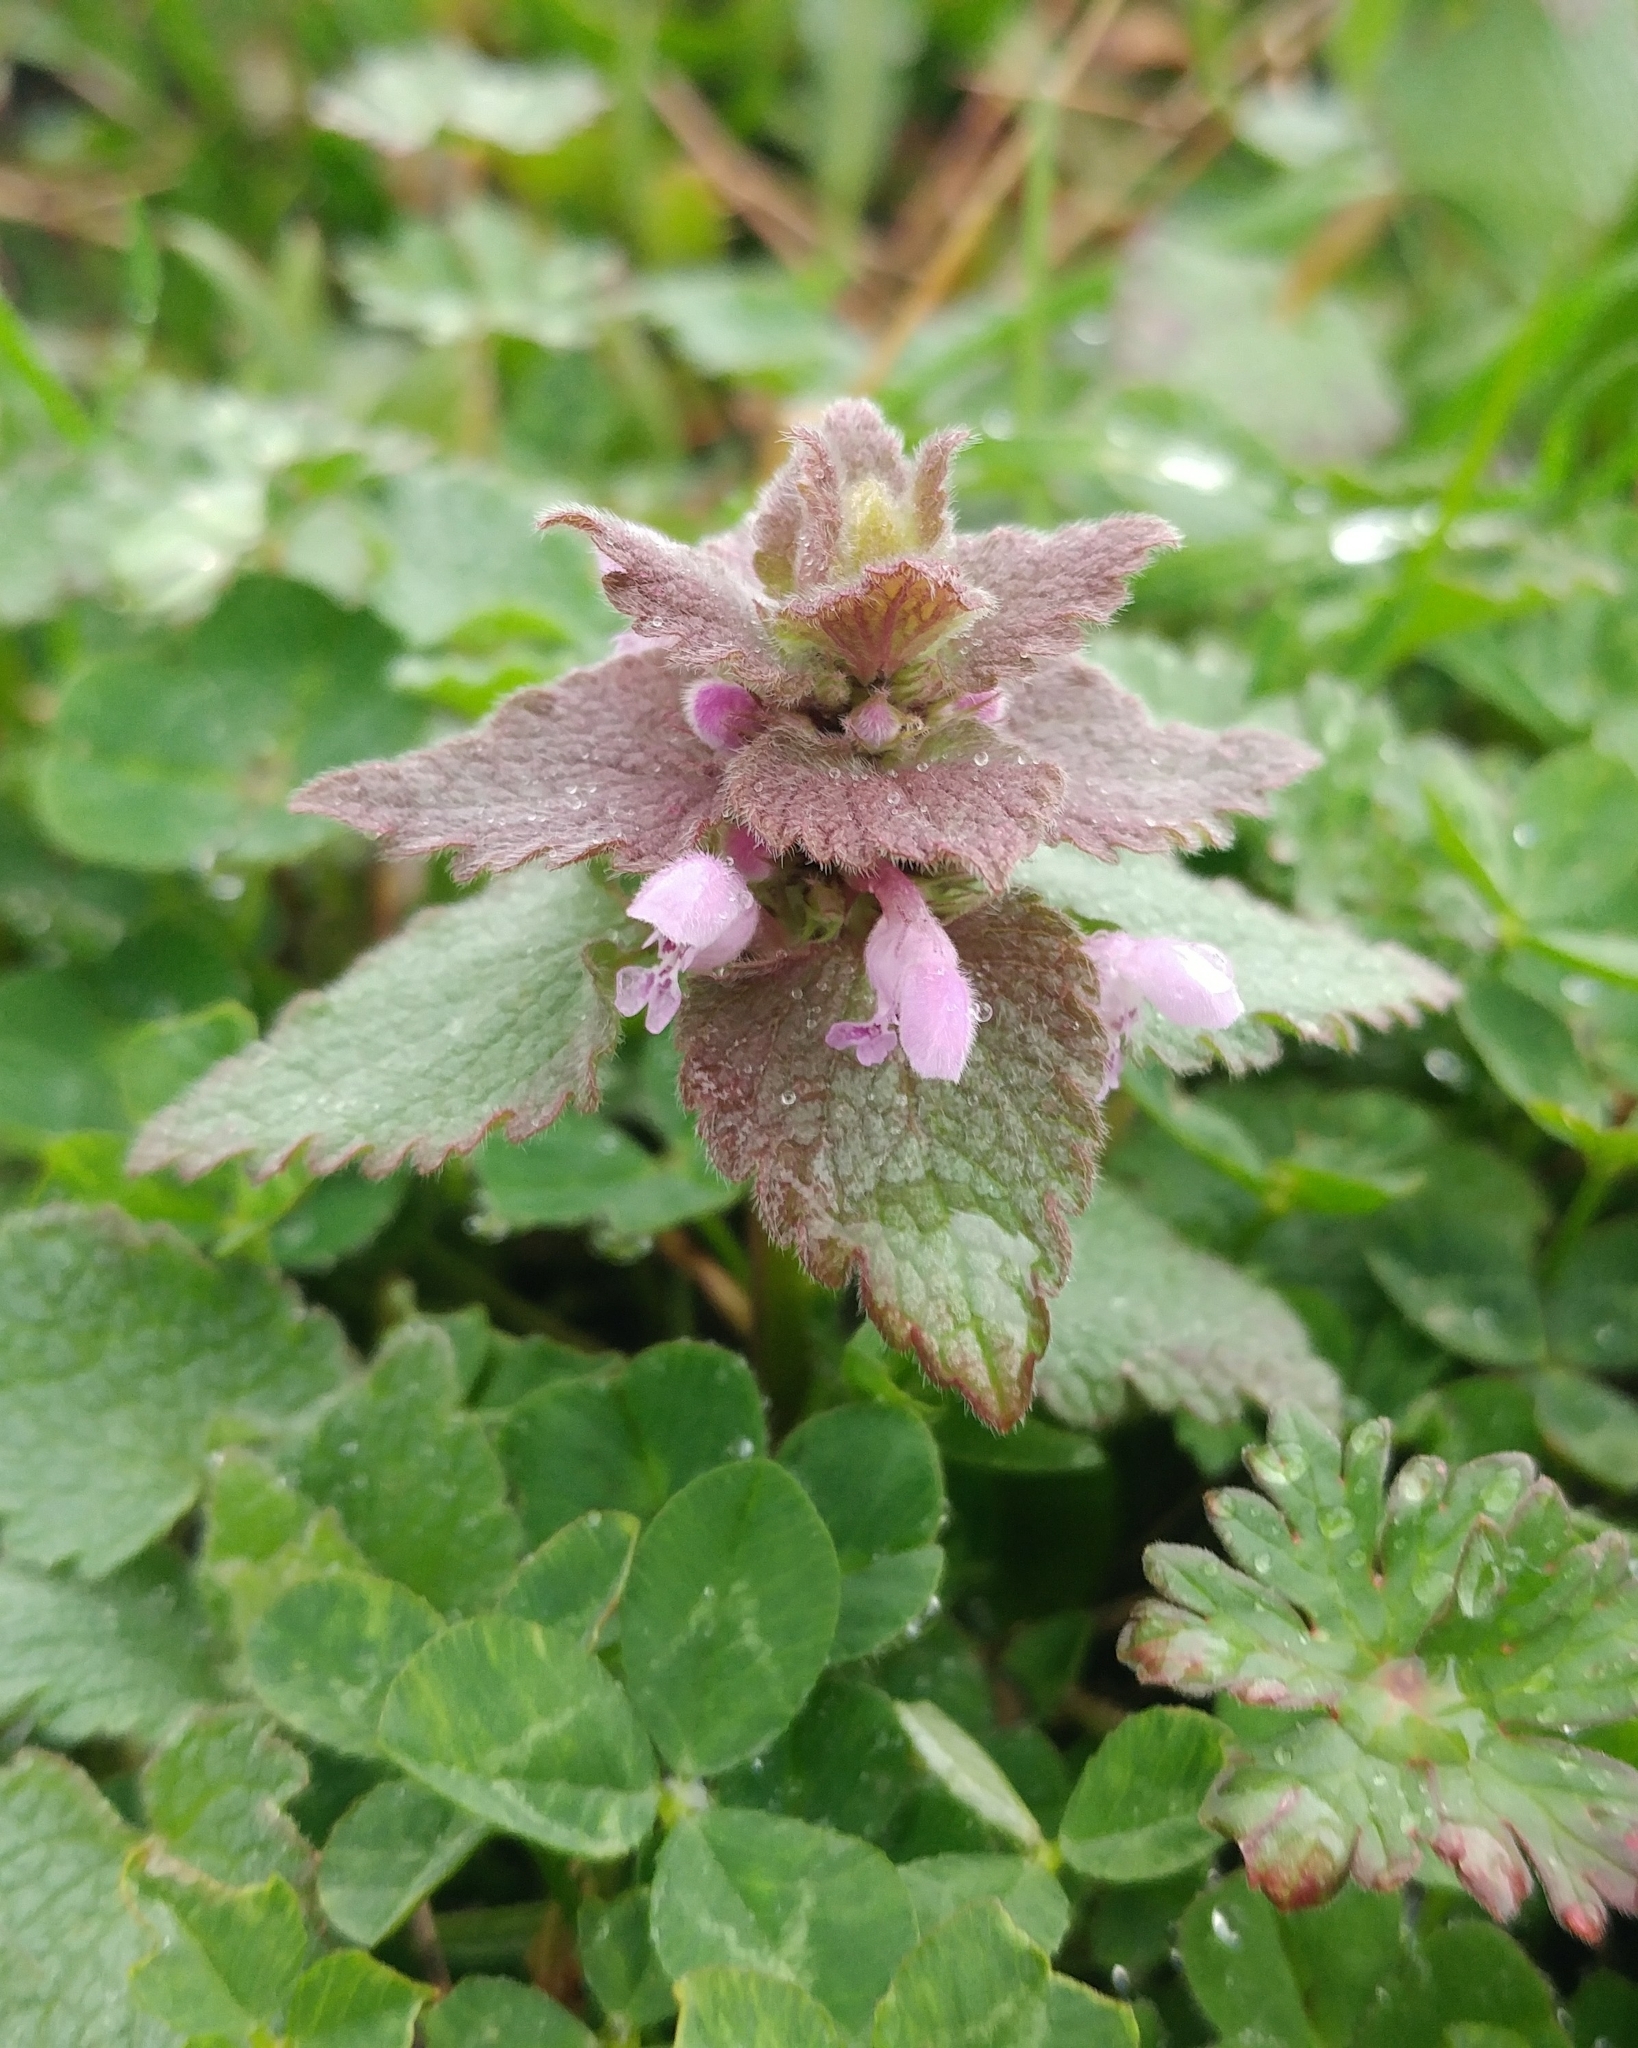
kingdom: Plantae
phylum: Tracheophyta
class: Magnoliopsida
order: Lamiales
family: Lamiaceae
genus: Lamium
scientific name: Lamium purpureum
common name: Red dead-nettle
